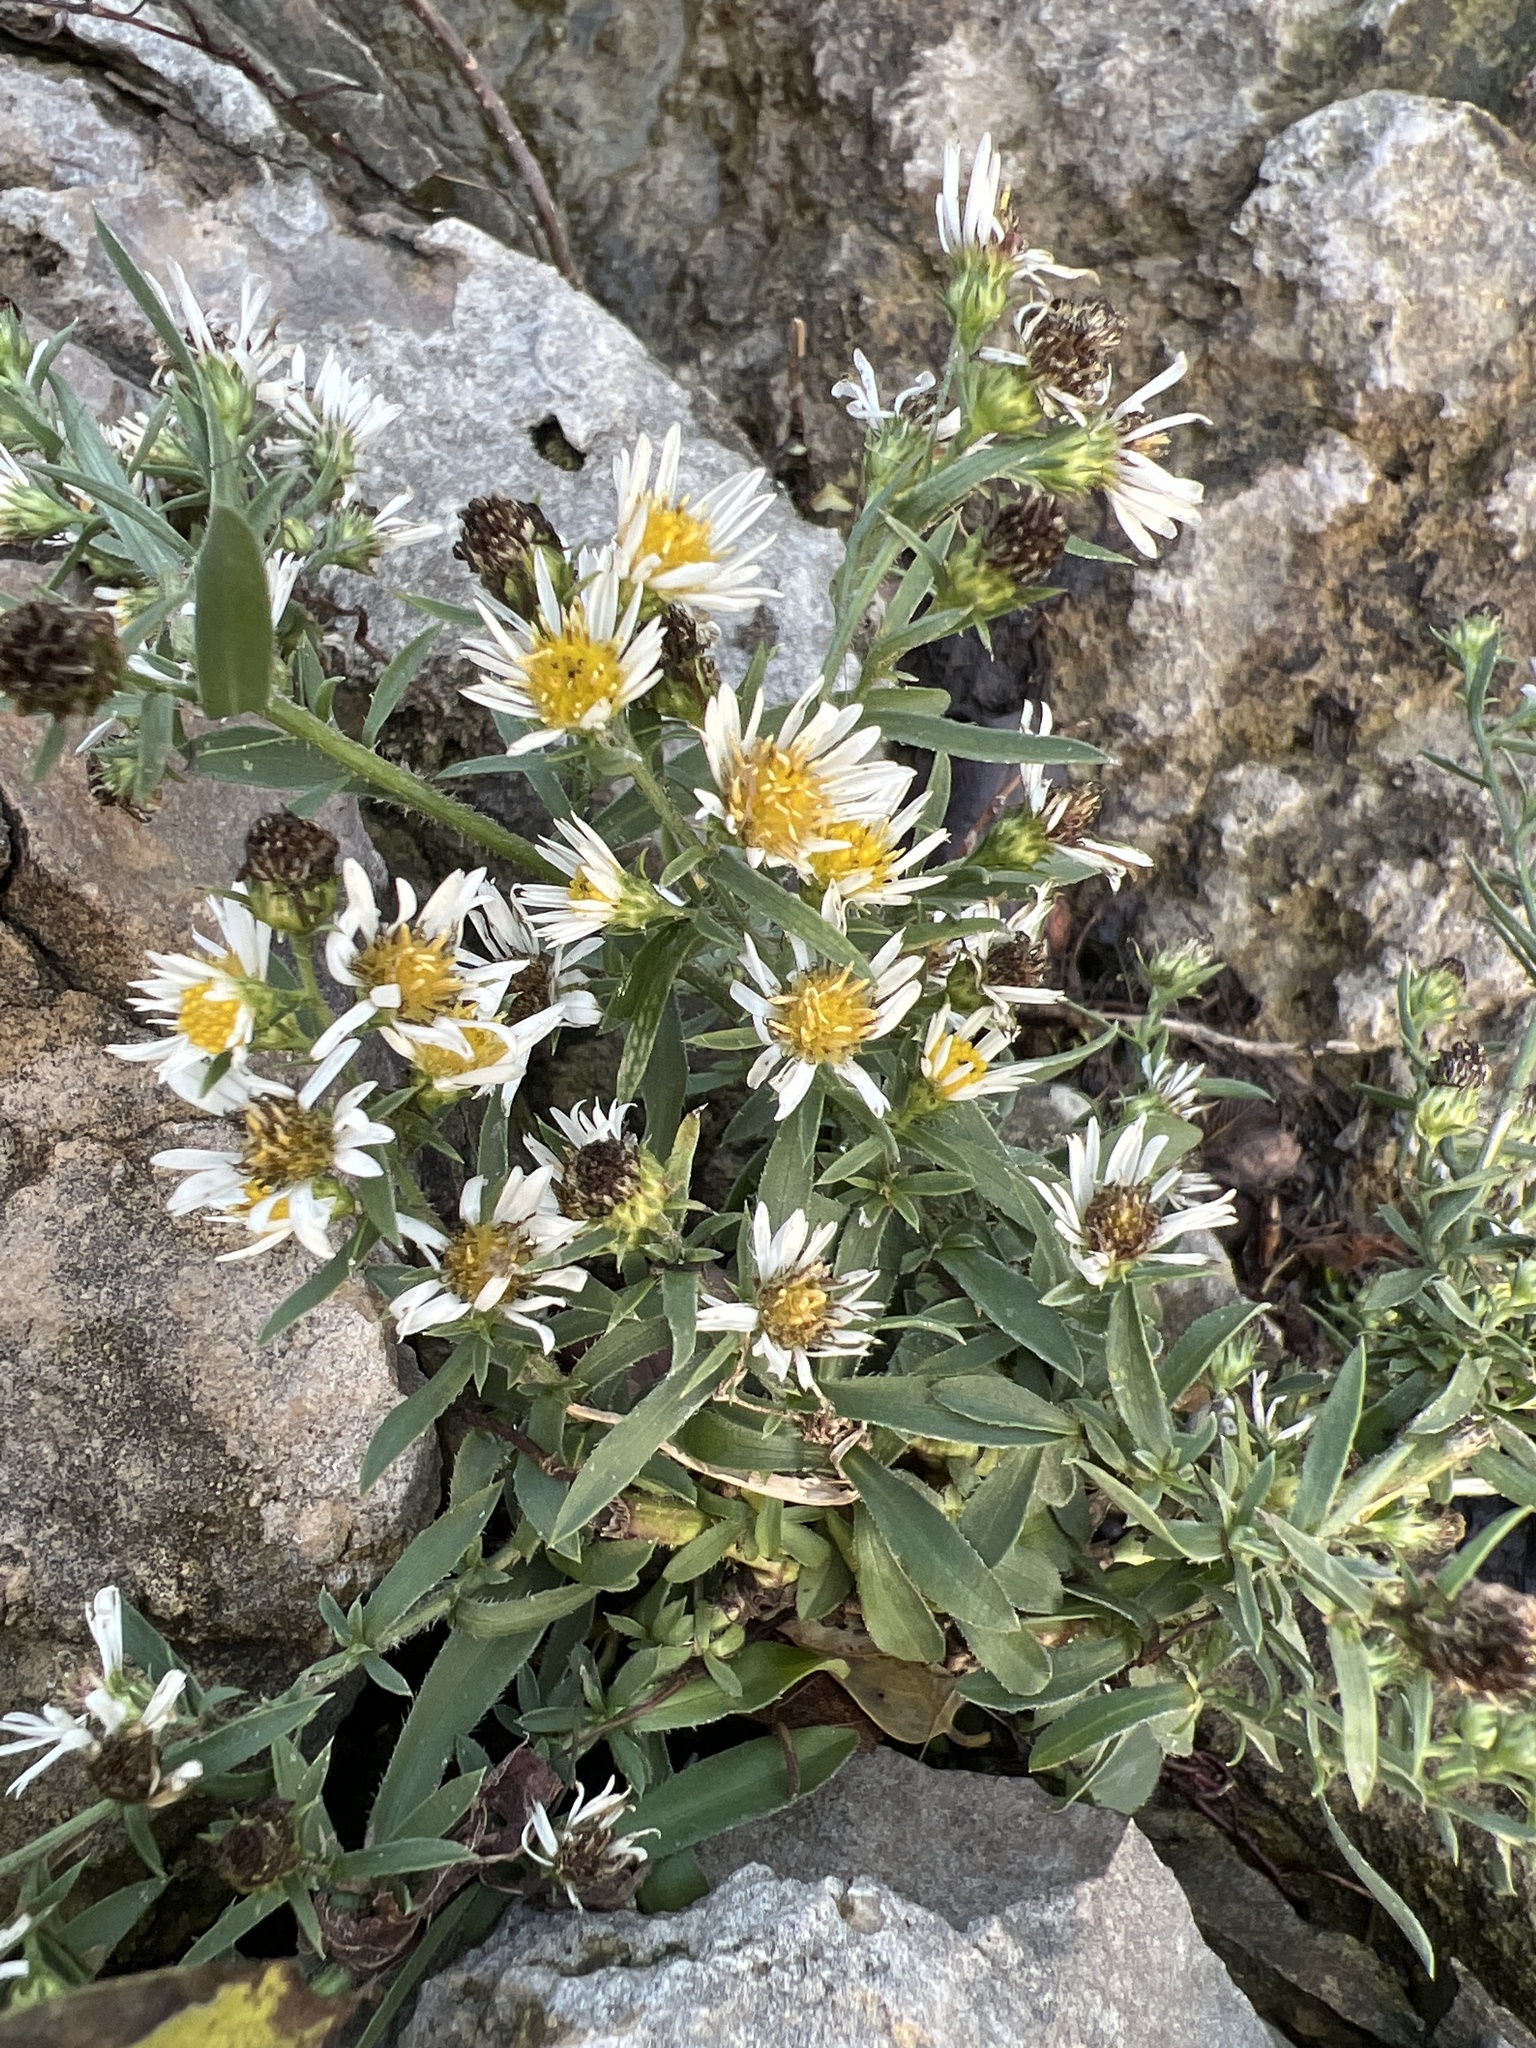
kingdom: Plantae
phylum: Tracheophyta
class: Magnoliopsida
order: Asterales
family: Asteraceae
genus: Symphyotrichum
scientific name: Symphyotrichum pilosum
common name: Awl aster
